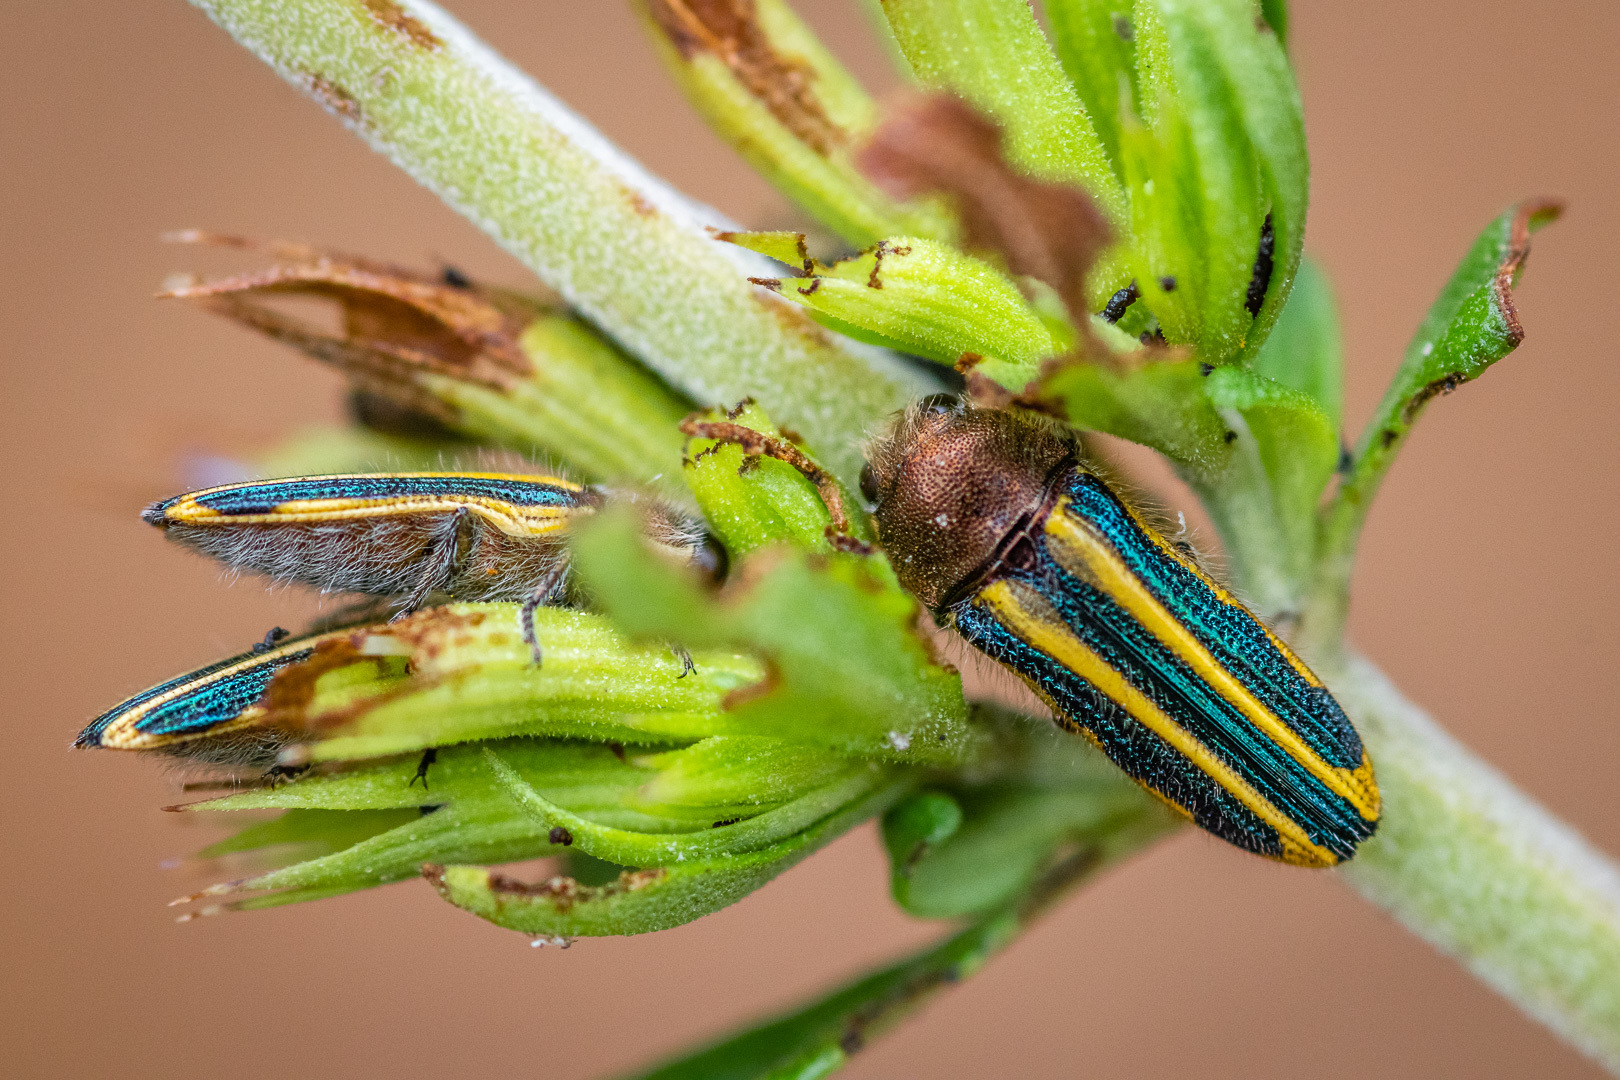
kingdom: Animalia
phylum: Arthropoda
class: Insecta
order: Coleoptera
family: Buprestidae
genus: Lasionota
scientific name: Lasionota minor
